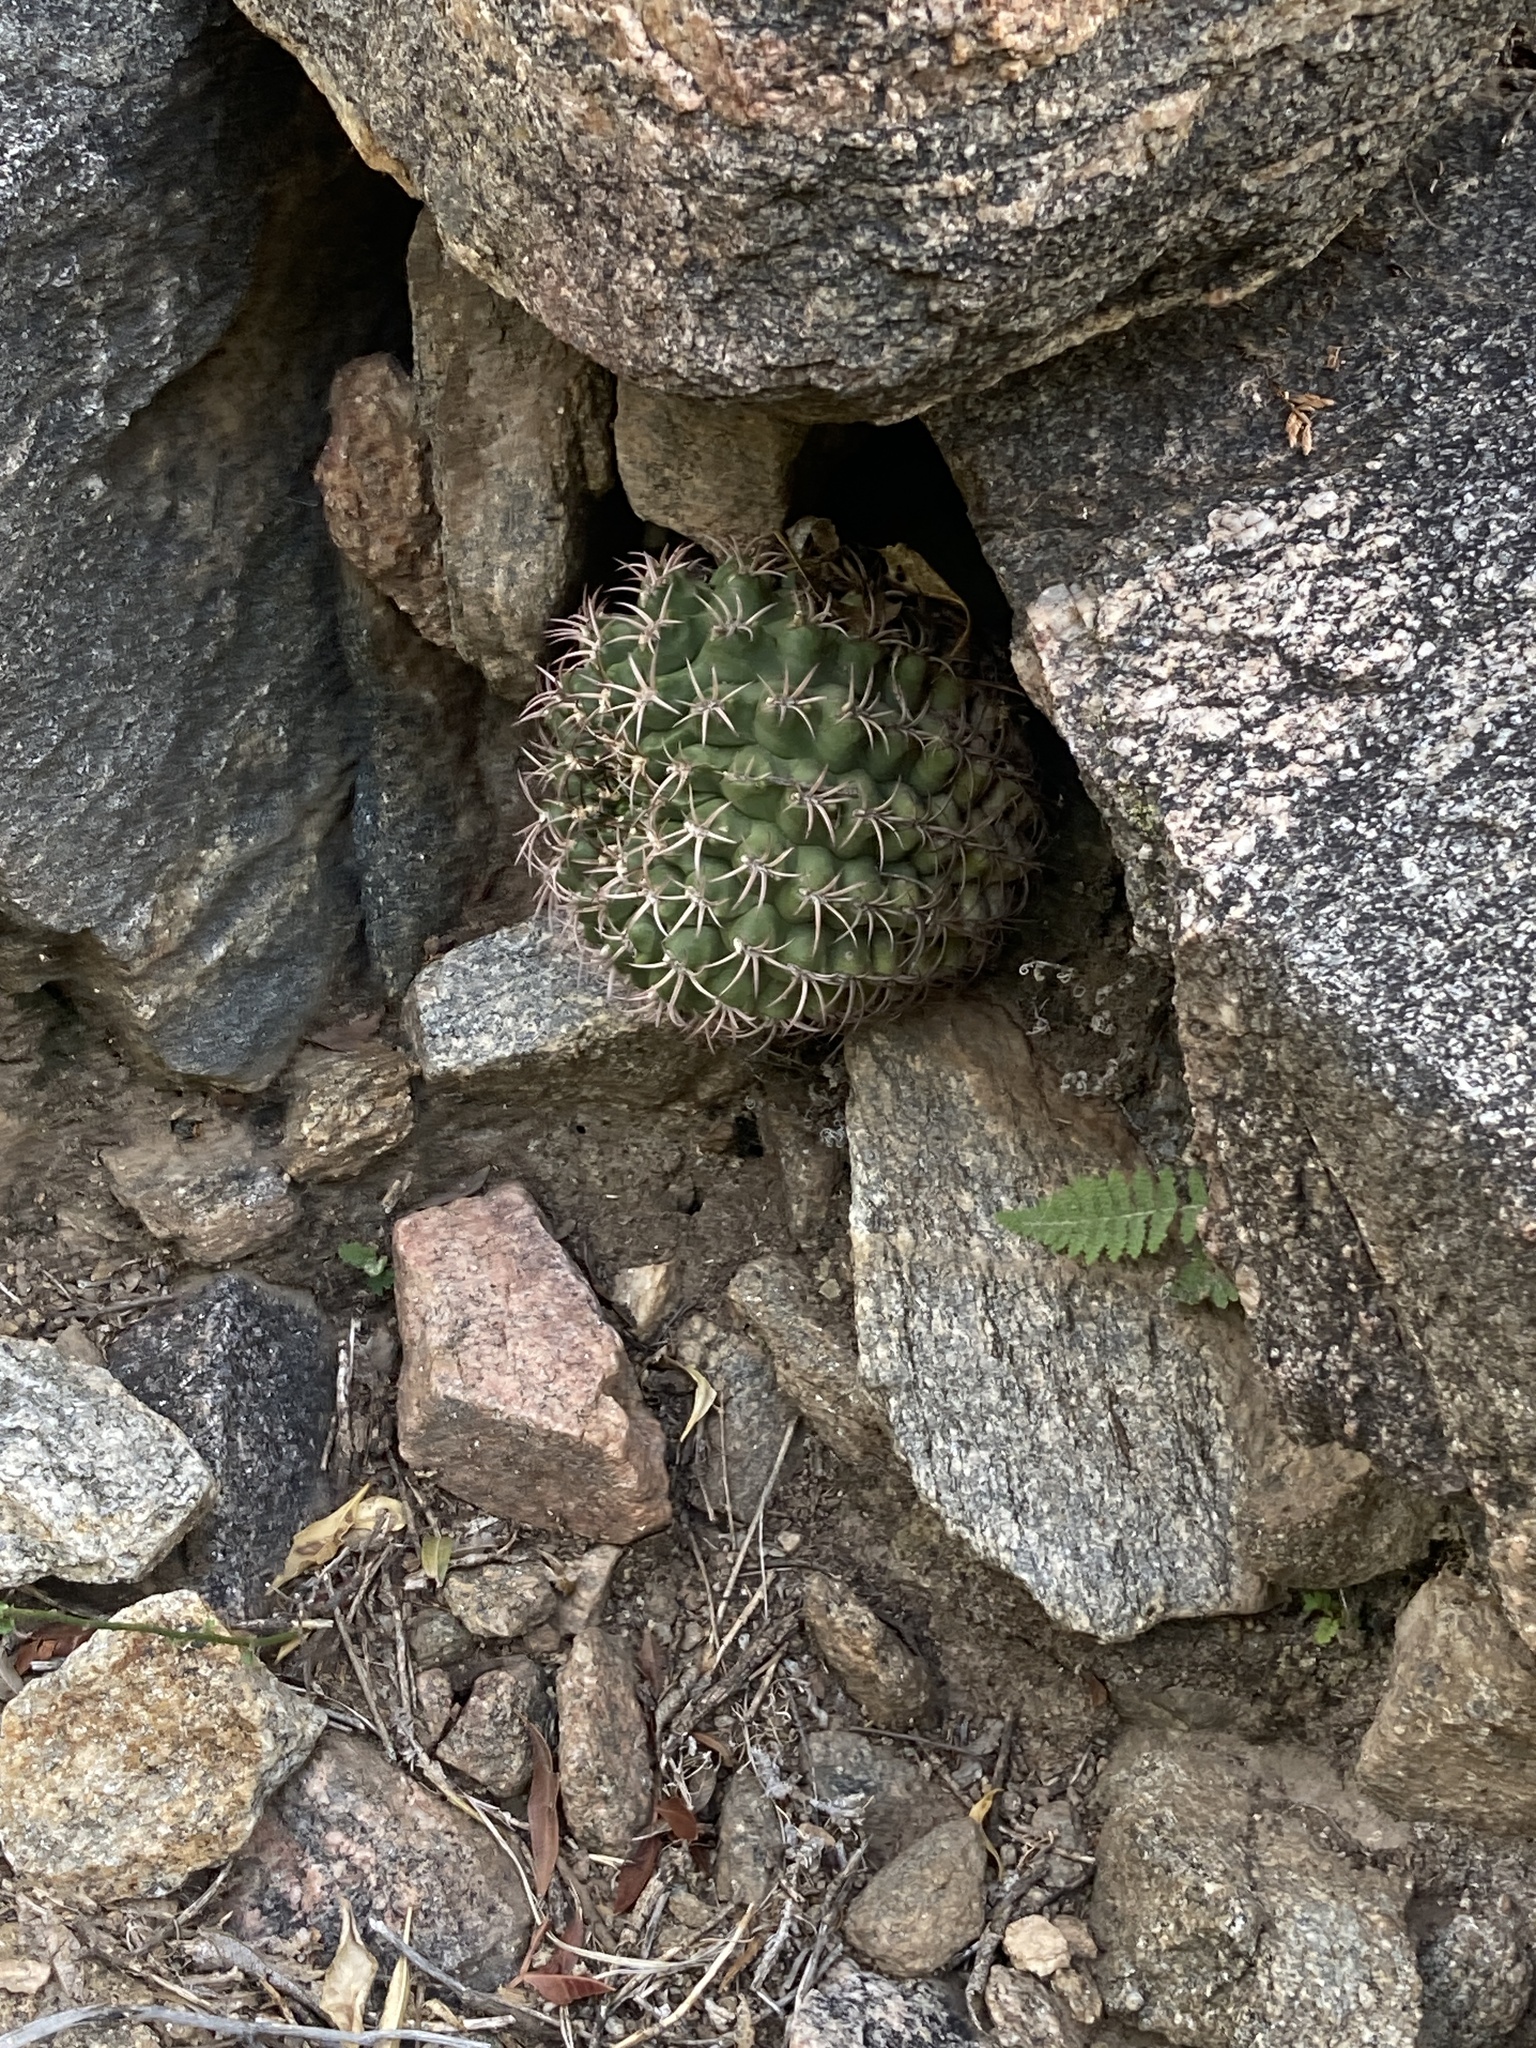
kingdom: Plantae
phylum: Tracheophyta
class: Magnoliopsida
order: Caryophyllales
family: Cactaceae
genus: Gymnocalycium
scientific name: Gymnocalycium schickendantzii
